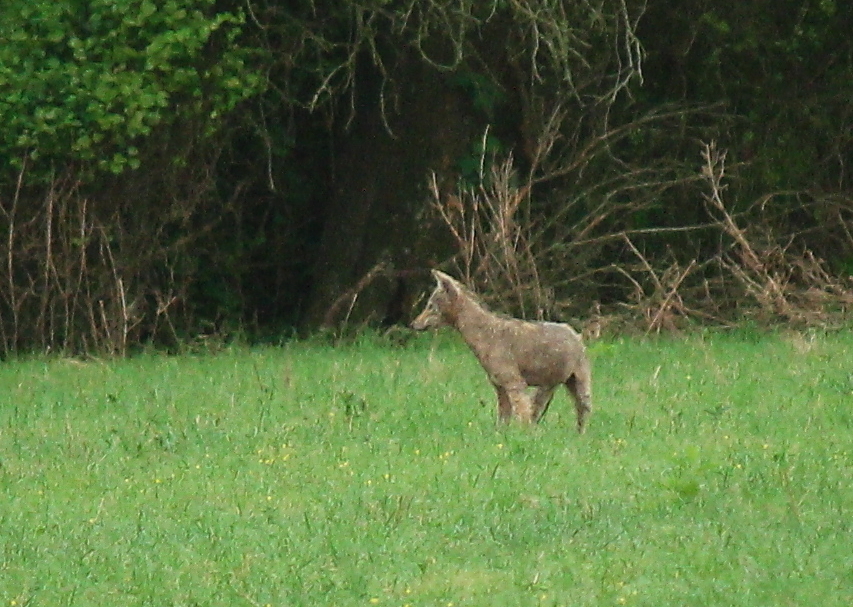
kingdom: Animalia
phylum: Chordata
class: Mammalia
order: Carnivora
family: Canidae
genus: Canis
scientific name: Canis latrans
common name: Coyote
